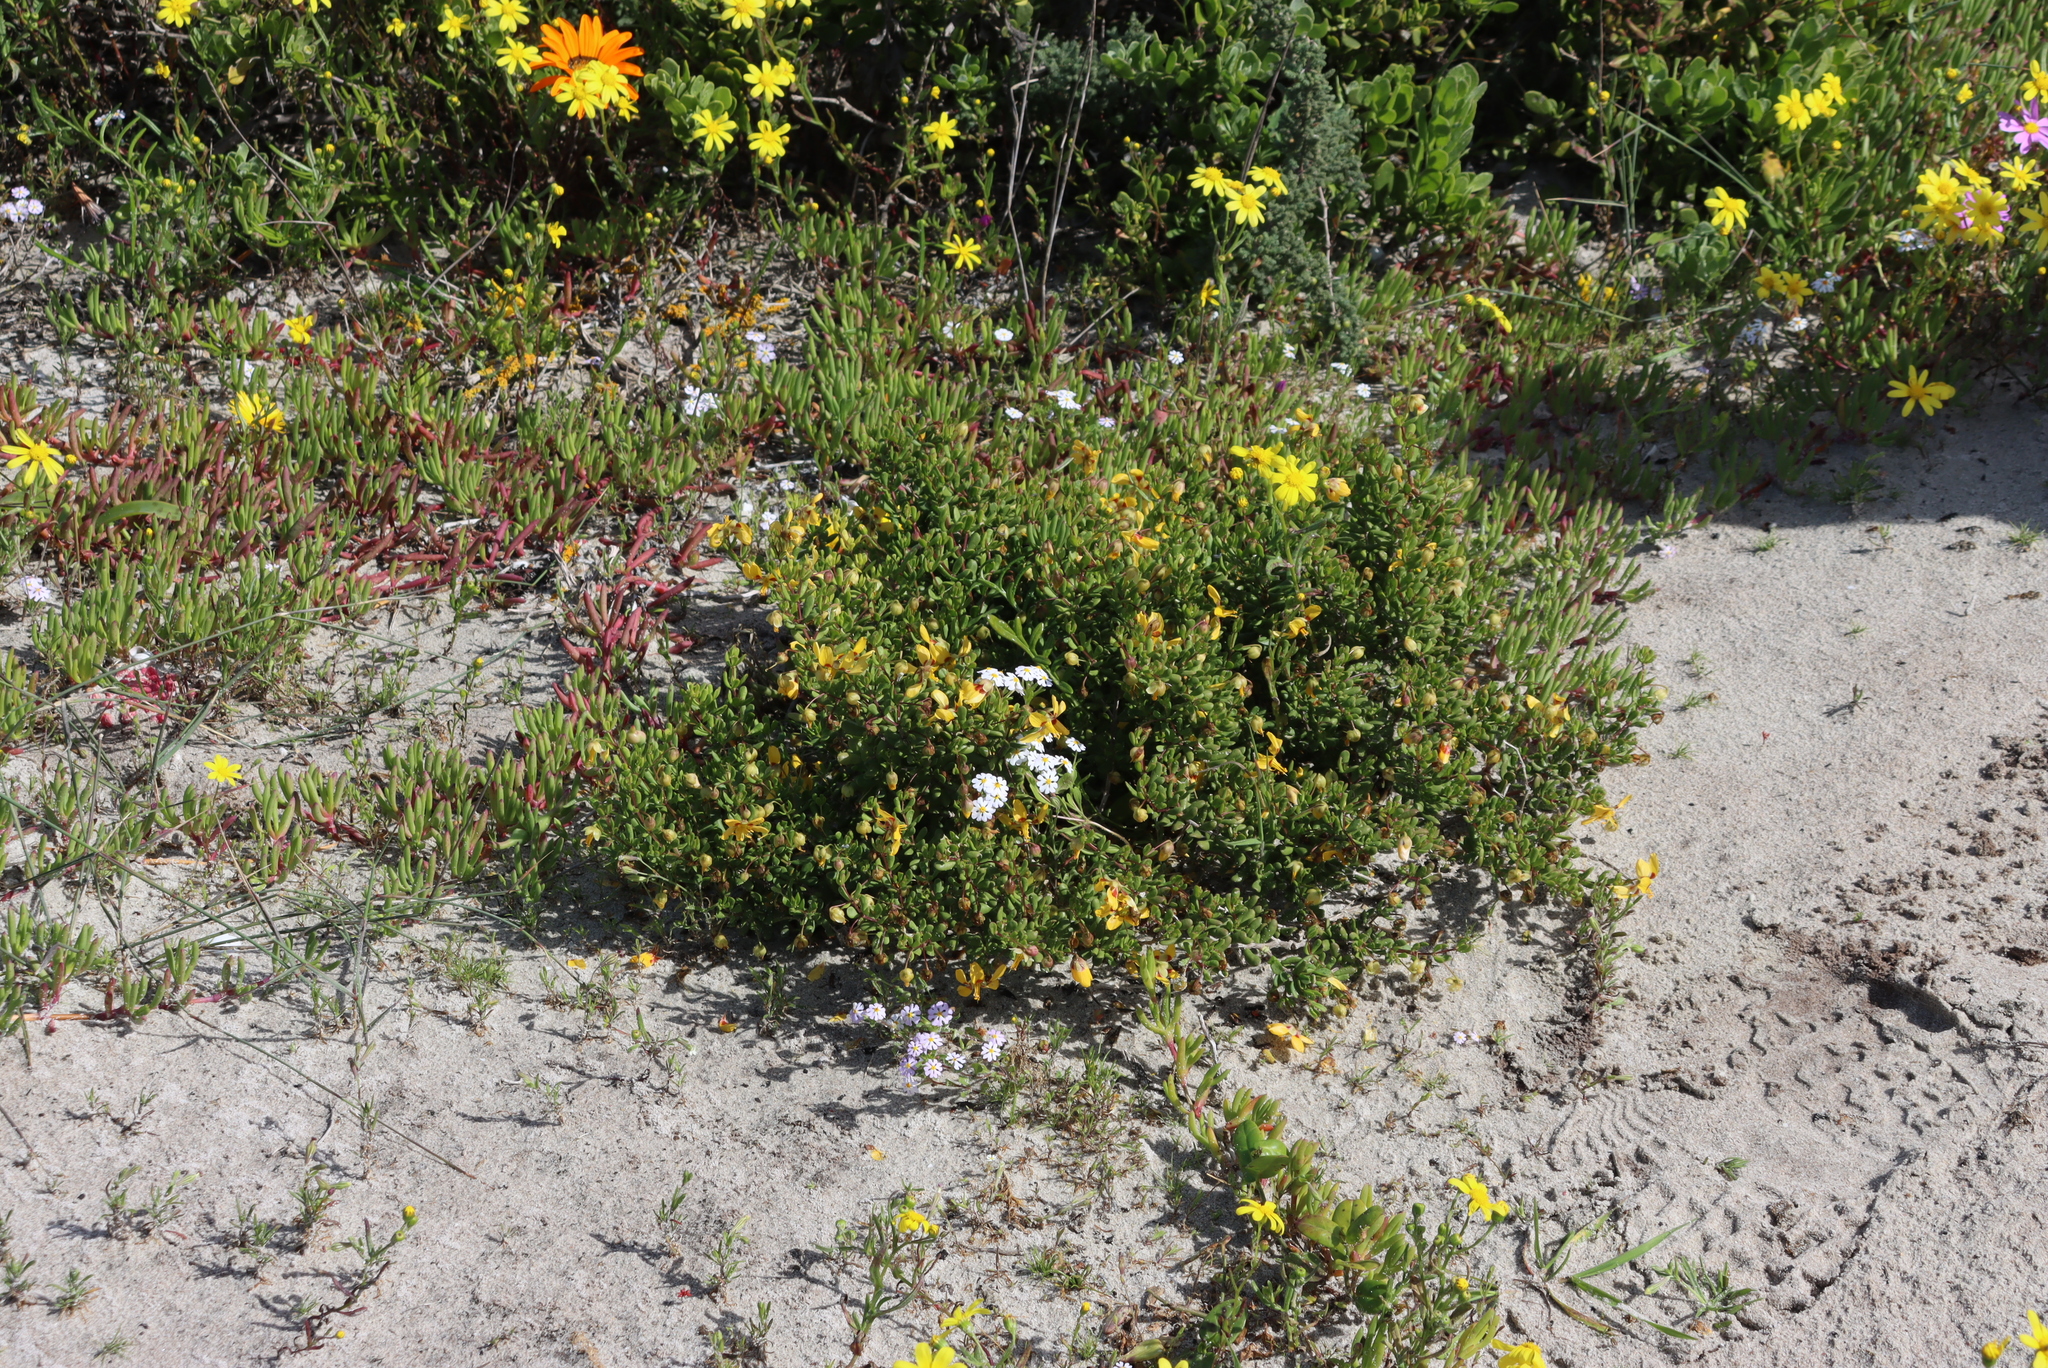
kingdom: Plantae
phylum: Tracheophyta
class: Magnoliopsida
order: Lamiales
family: Scrophulariaceae
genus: Zaluzianskya
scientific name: Zaluzianskya villosa
